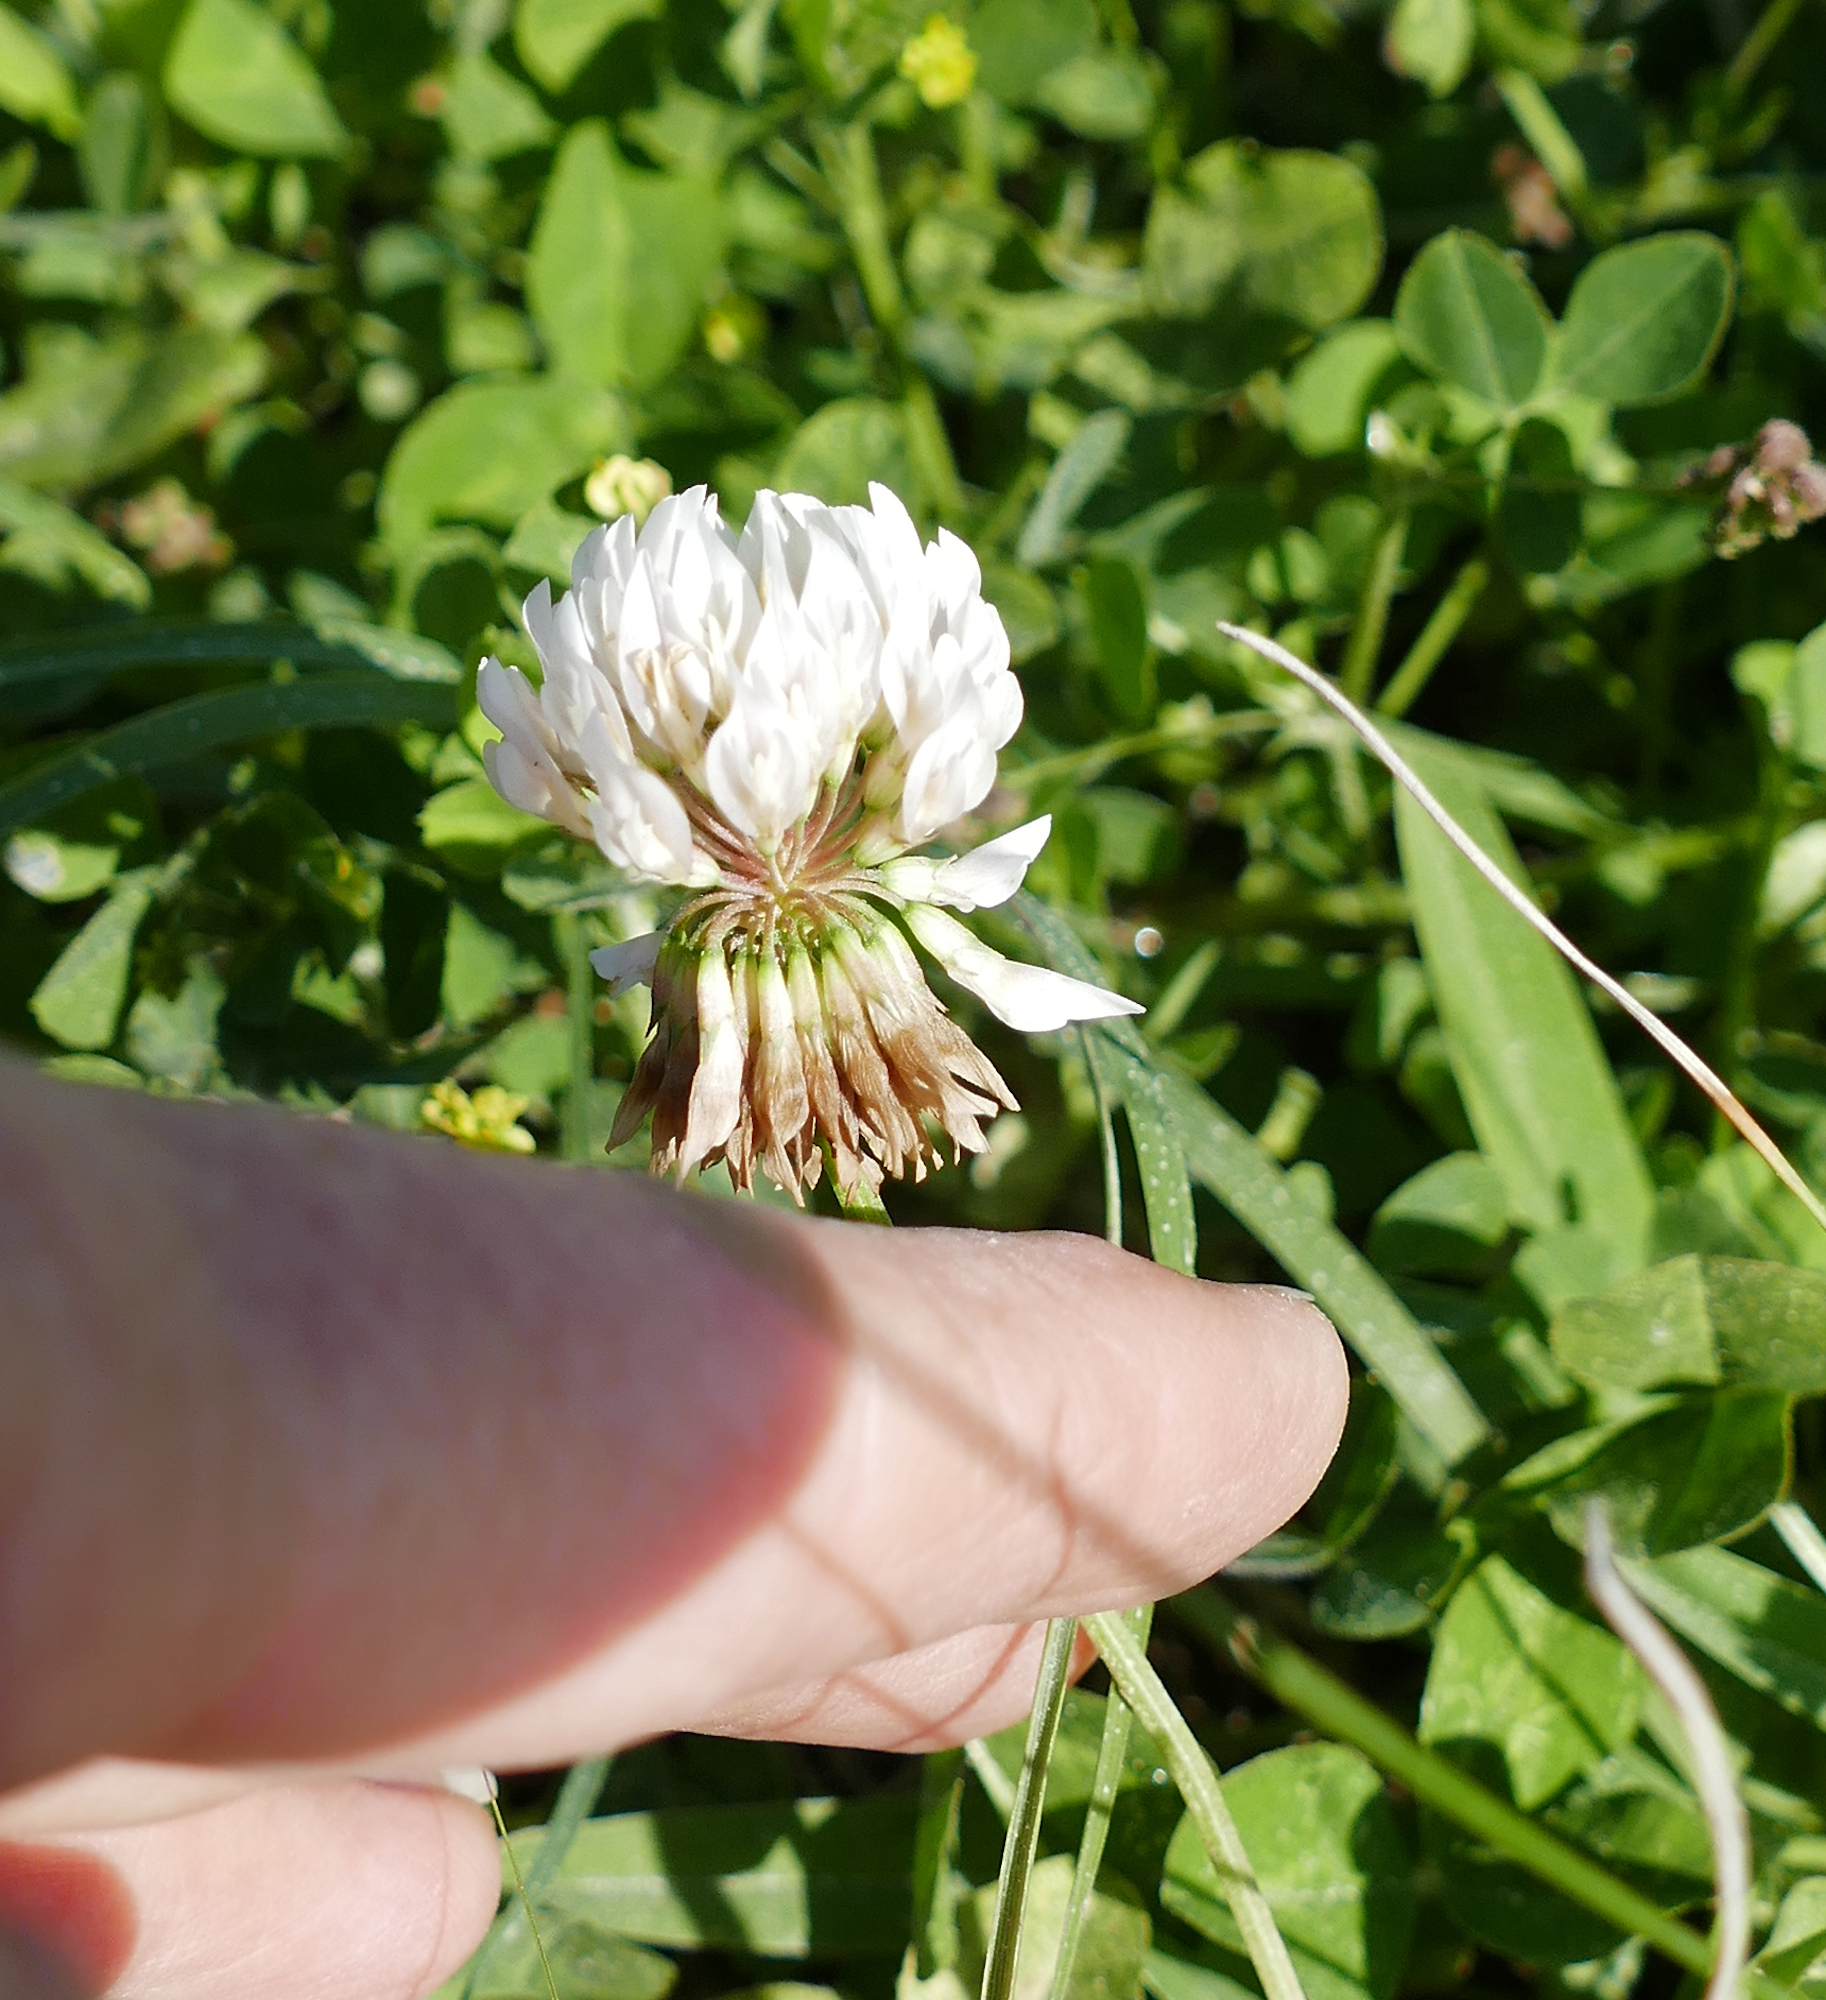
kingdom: Plantae
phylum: Tracheophyta
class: Magnoliopsida
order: Fabales
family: Fabaceae
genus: Trifolium
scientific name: Trifolium repens
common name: White clover
